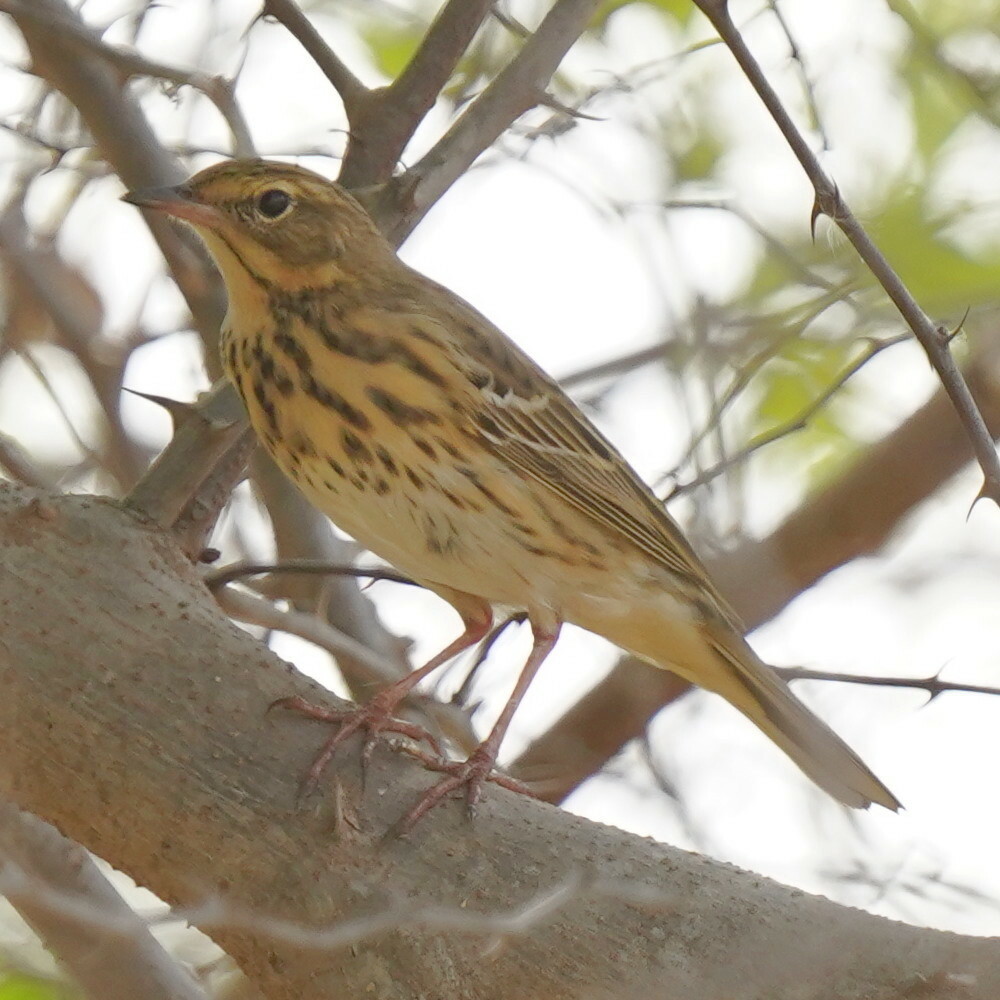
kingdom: Animalia
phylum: Chordata
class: Aves
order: Passeriformes
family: Motacillidae
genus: Anthus
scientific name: Anthus trivialis
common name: Tree pipit
